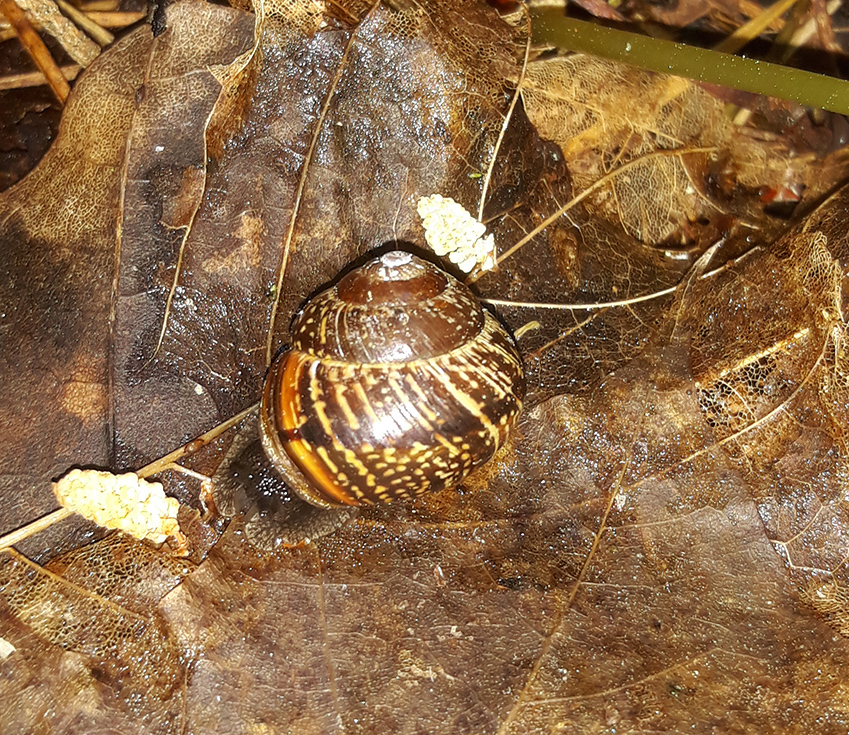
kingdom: Animalia
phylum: Mollusca
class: Gastropoda
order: Stylommatophora
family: Helicidae
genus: Arianta
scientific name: Arianta arbustorum
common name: Copse snail
